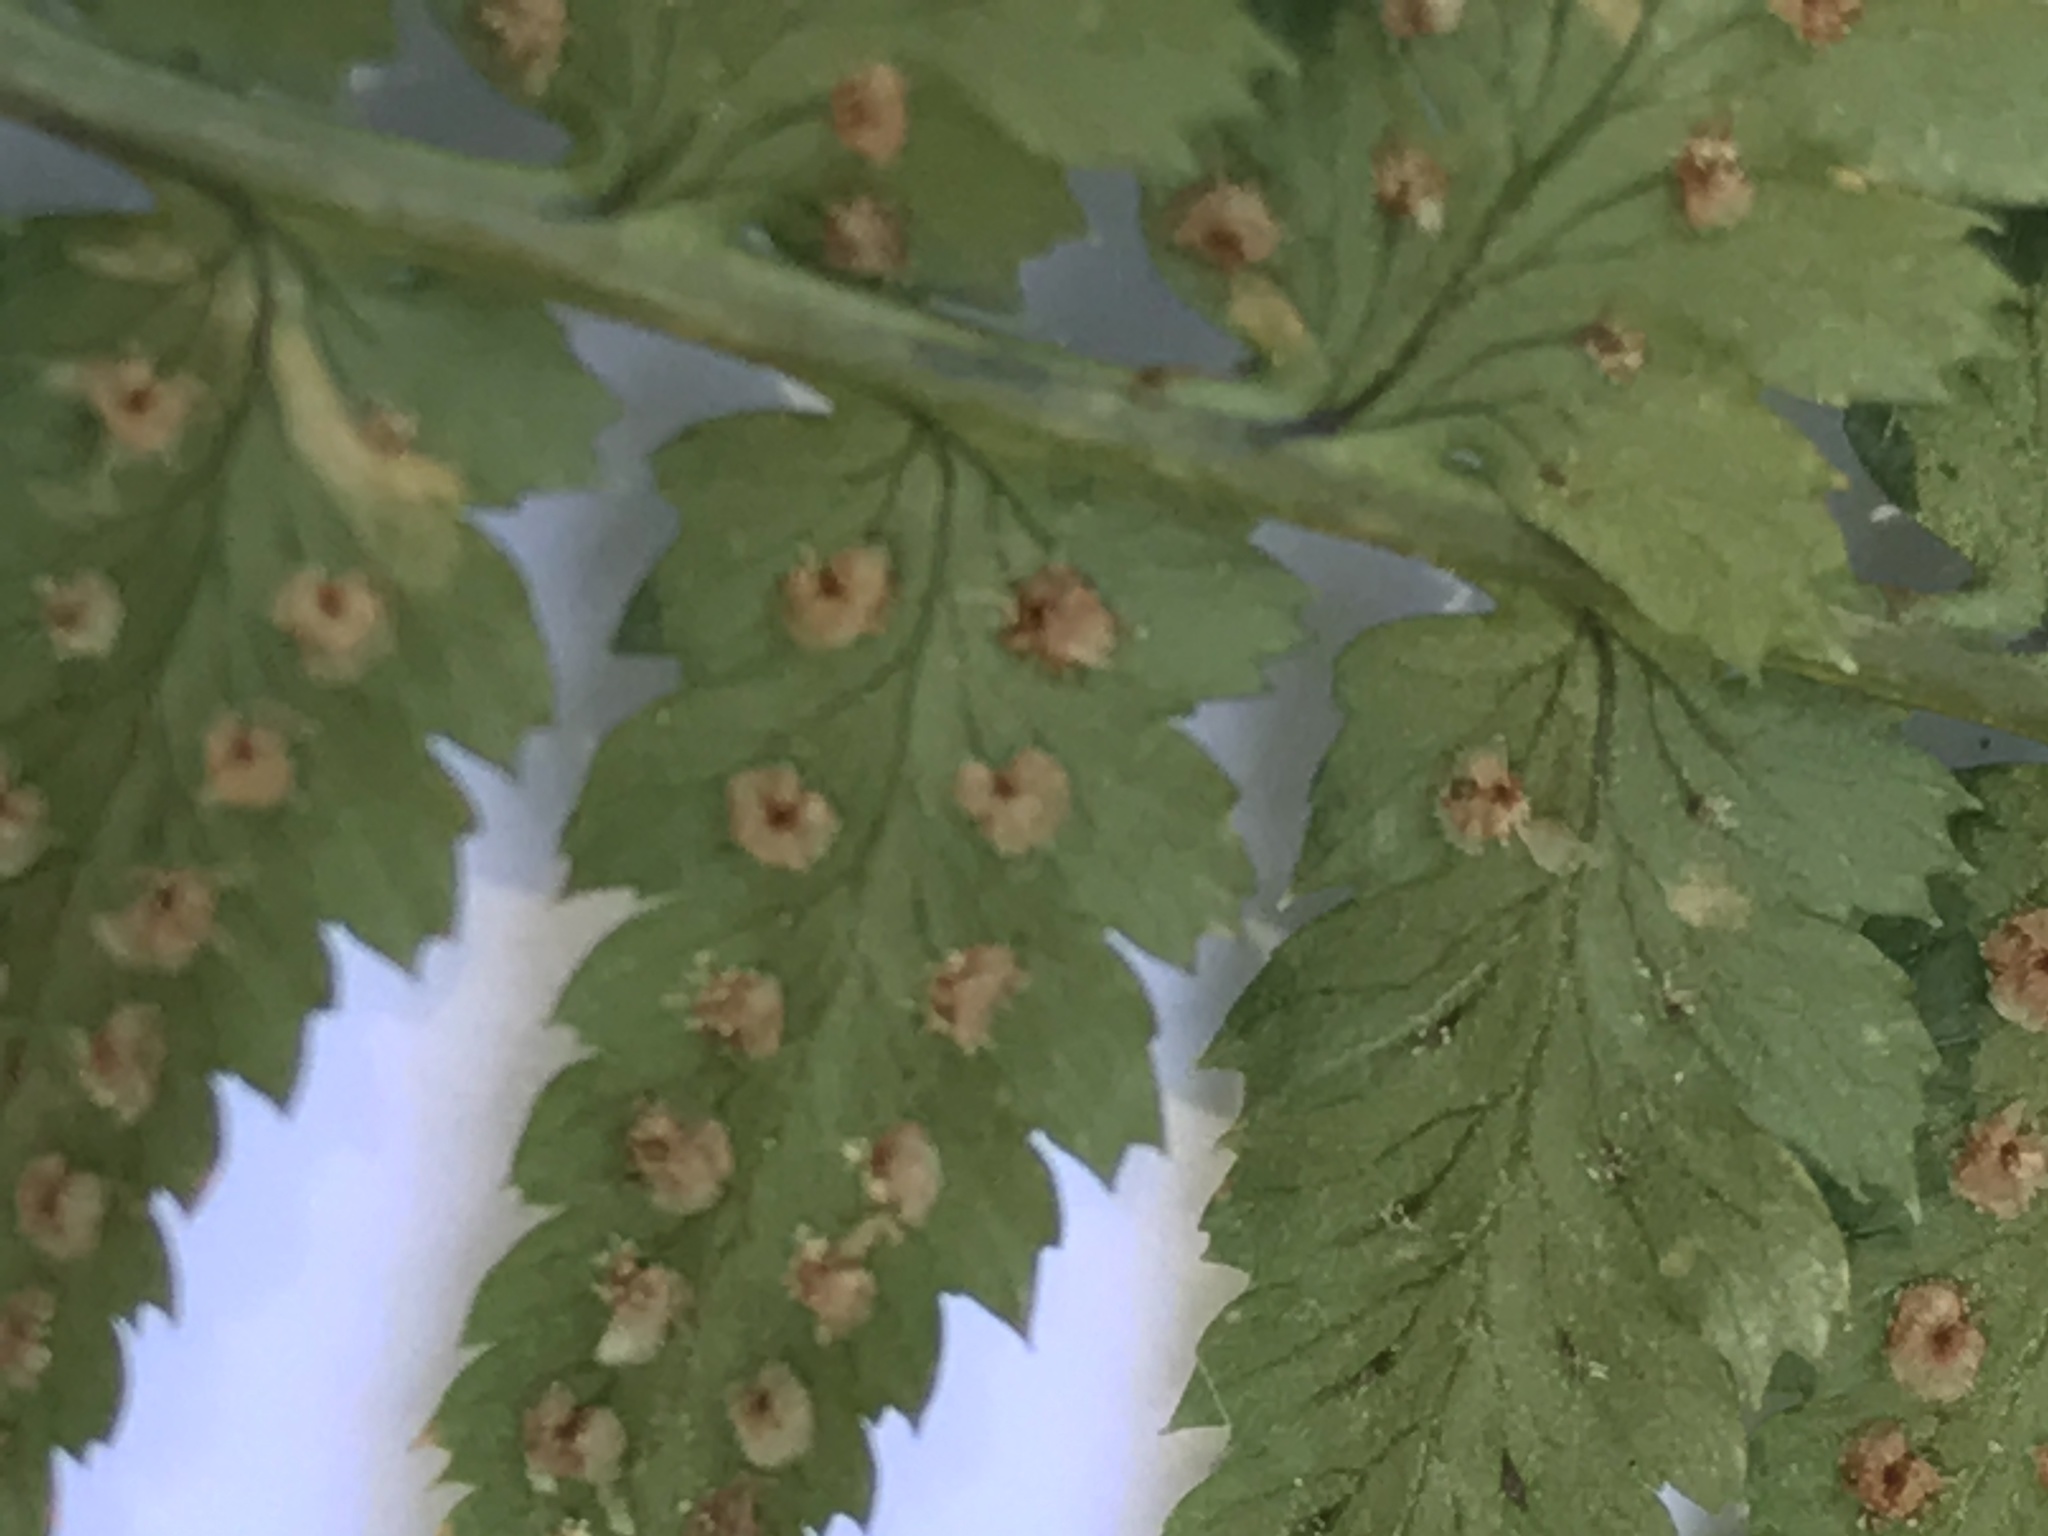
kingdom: Plantae
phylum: Tracheophyta
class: Polypodiopsida
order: Polypodiales
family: Dryopteridaceae
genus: Dryopteris
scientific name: Dryopteris arguta
